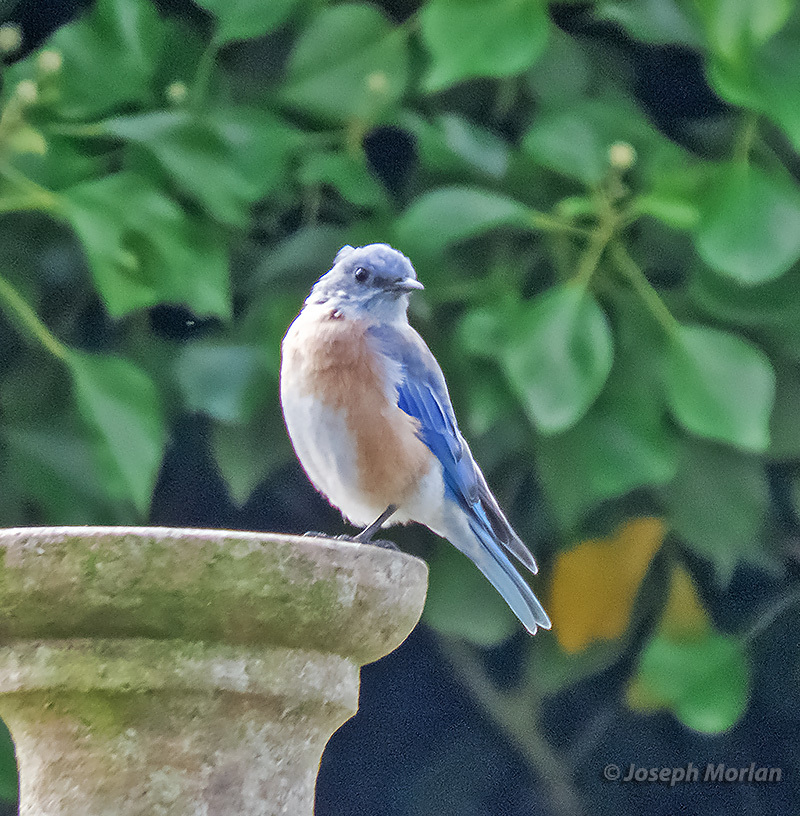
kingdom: Animalia
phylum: Chordata
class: Aves
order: Passeriformes
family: Turdidae
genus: Sialia
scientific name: Sialia mexicana
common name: Western bluebird
